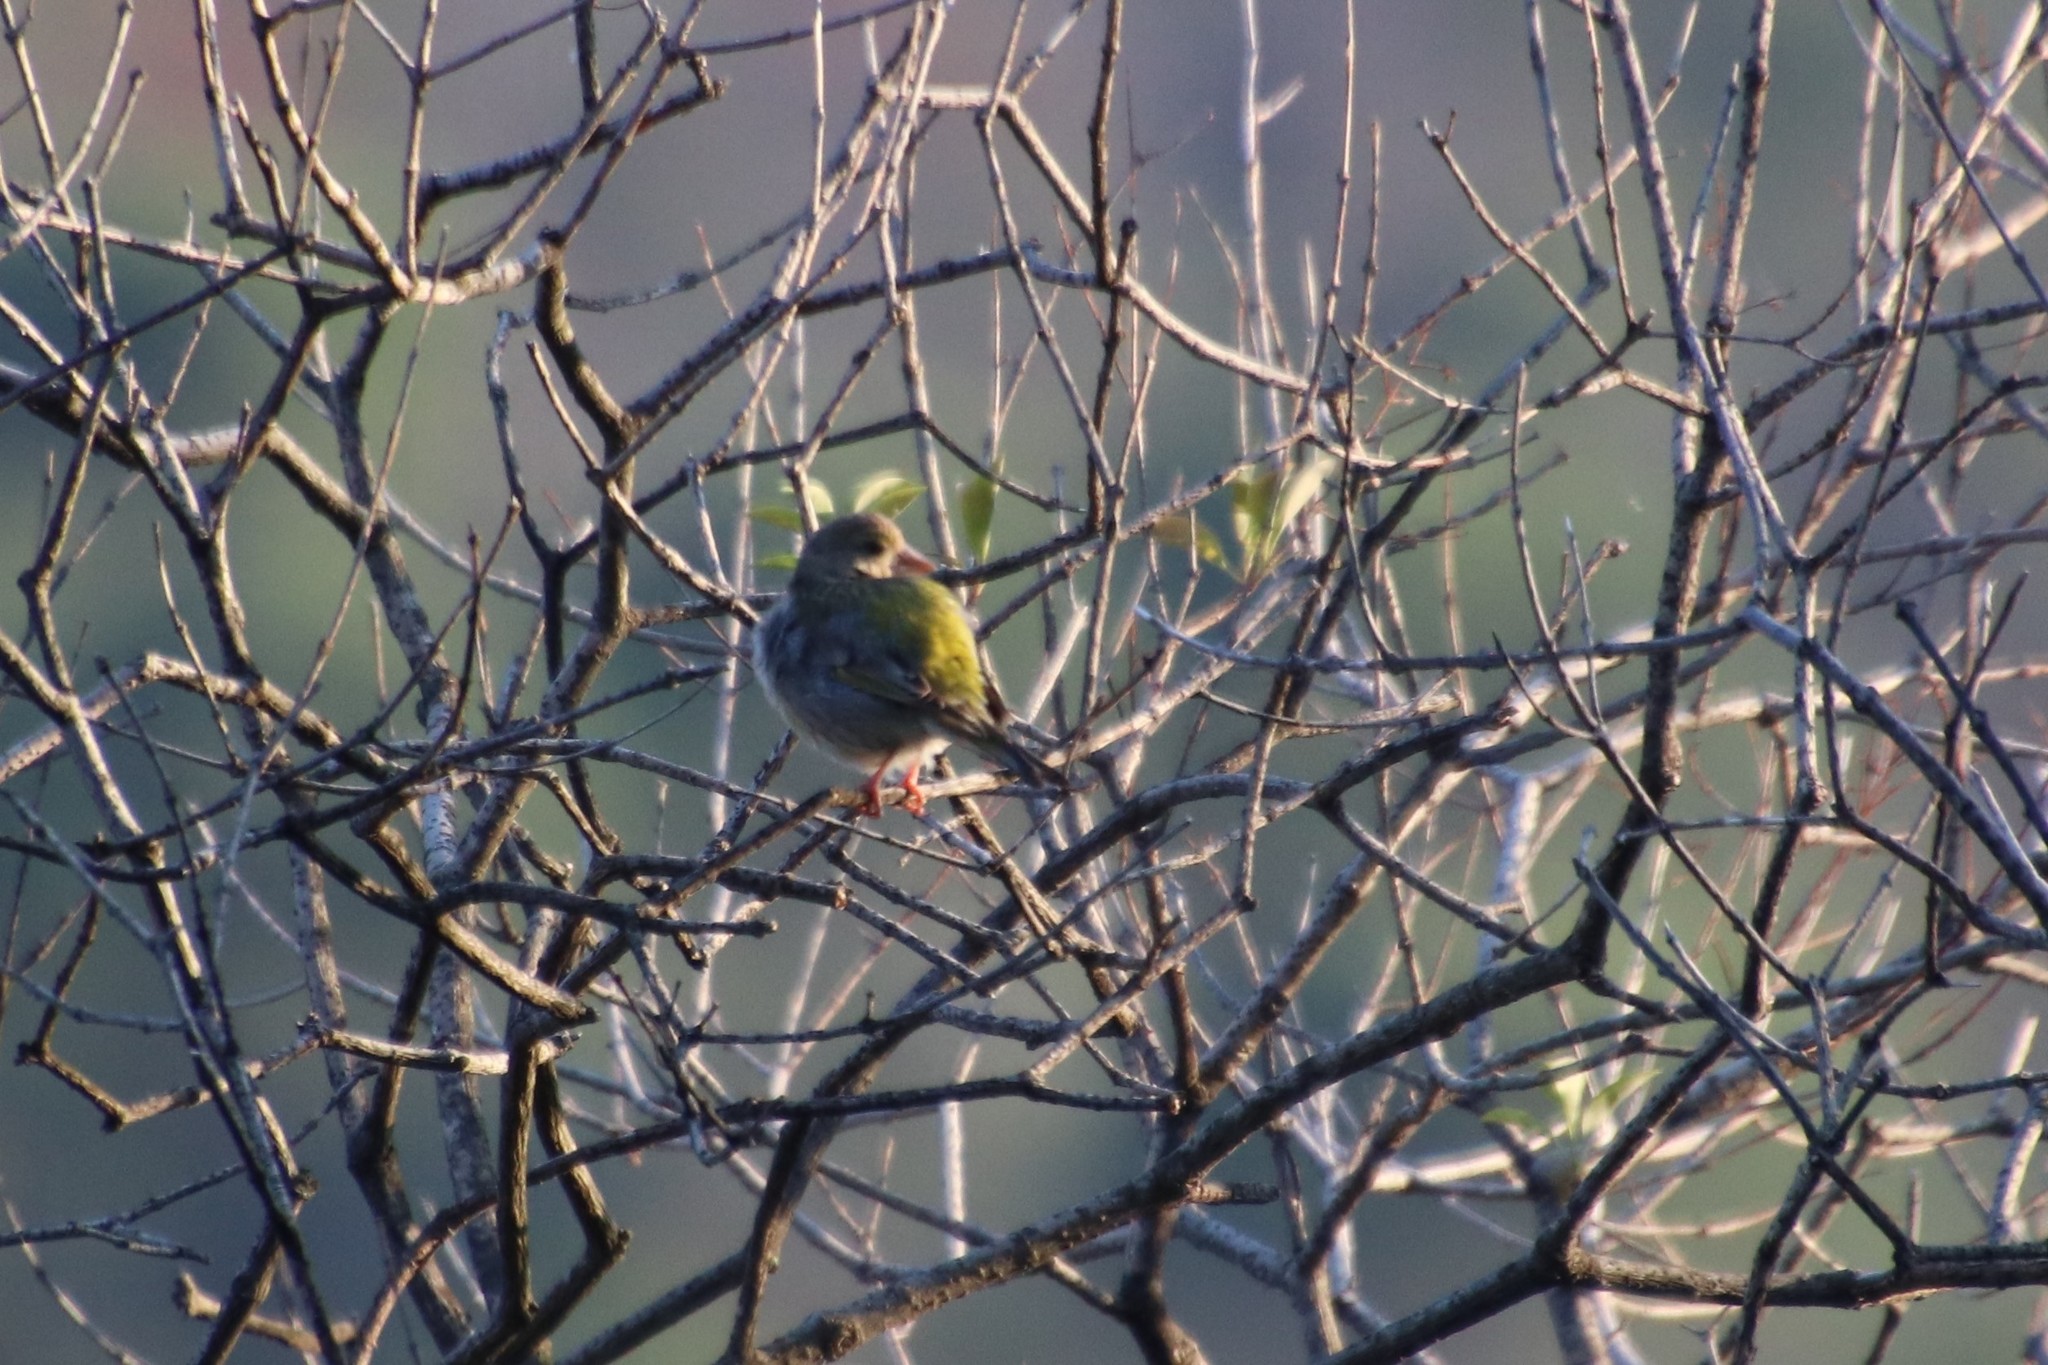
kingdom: Plantae
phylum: Tracheophyta
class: Liliopsida
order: Poales
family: Poaceae
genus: Chloris
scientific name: Chloris chloris
